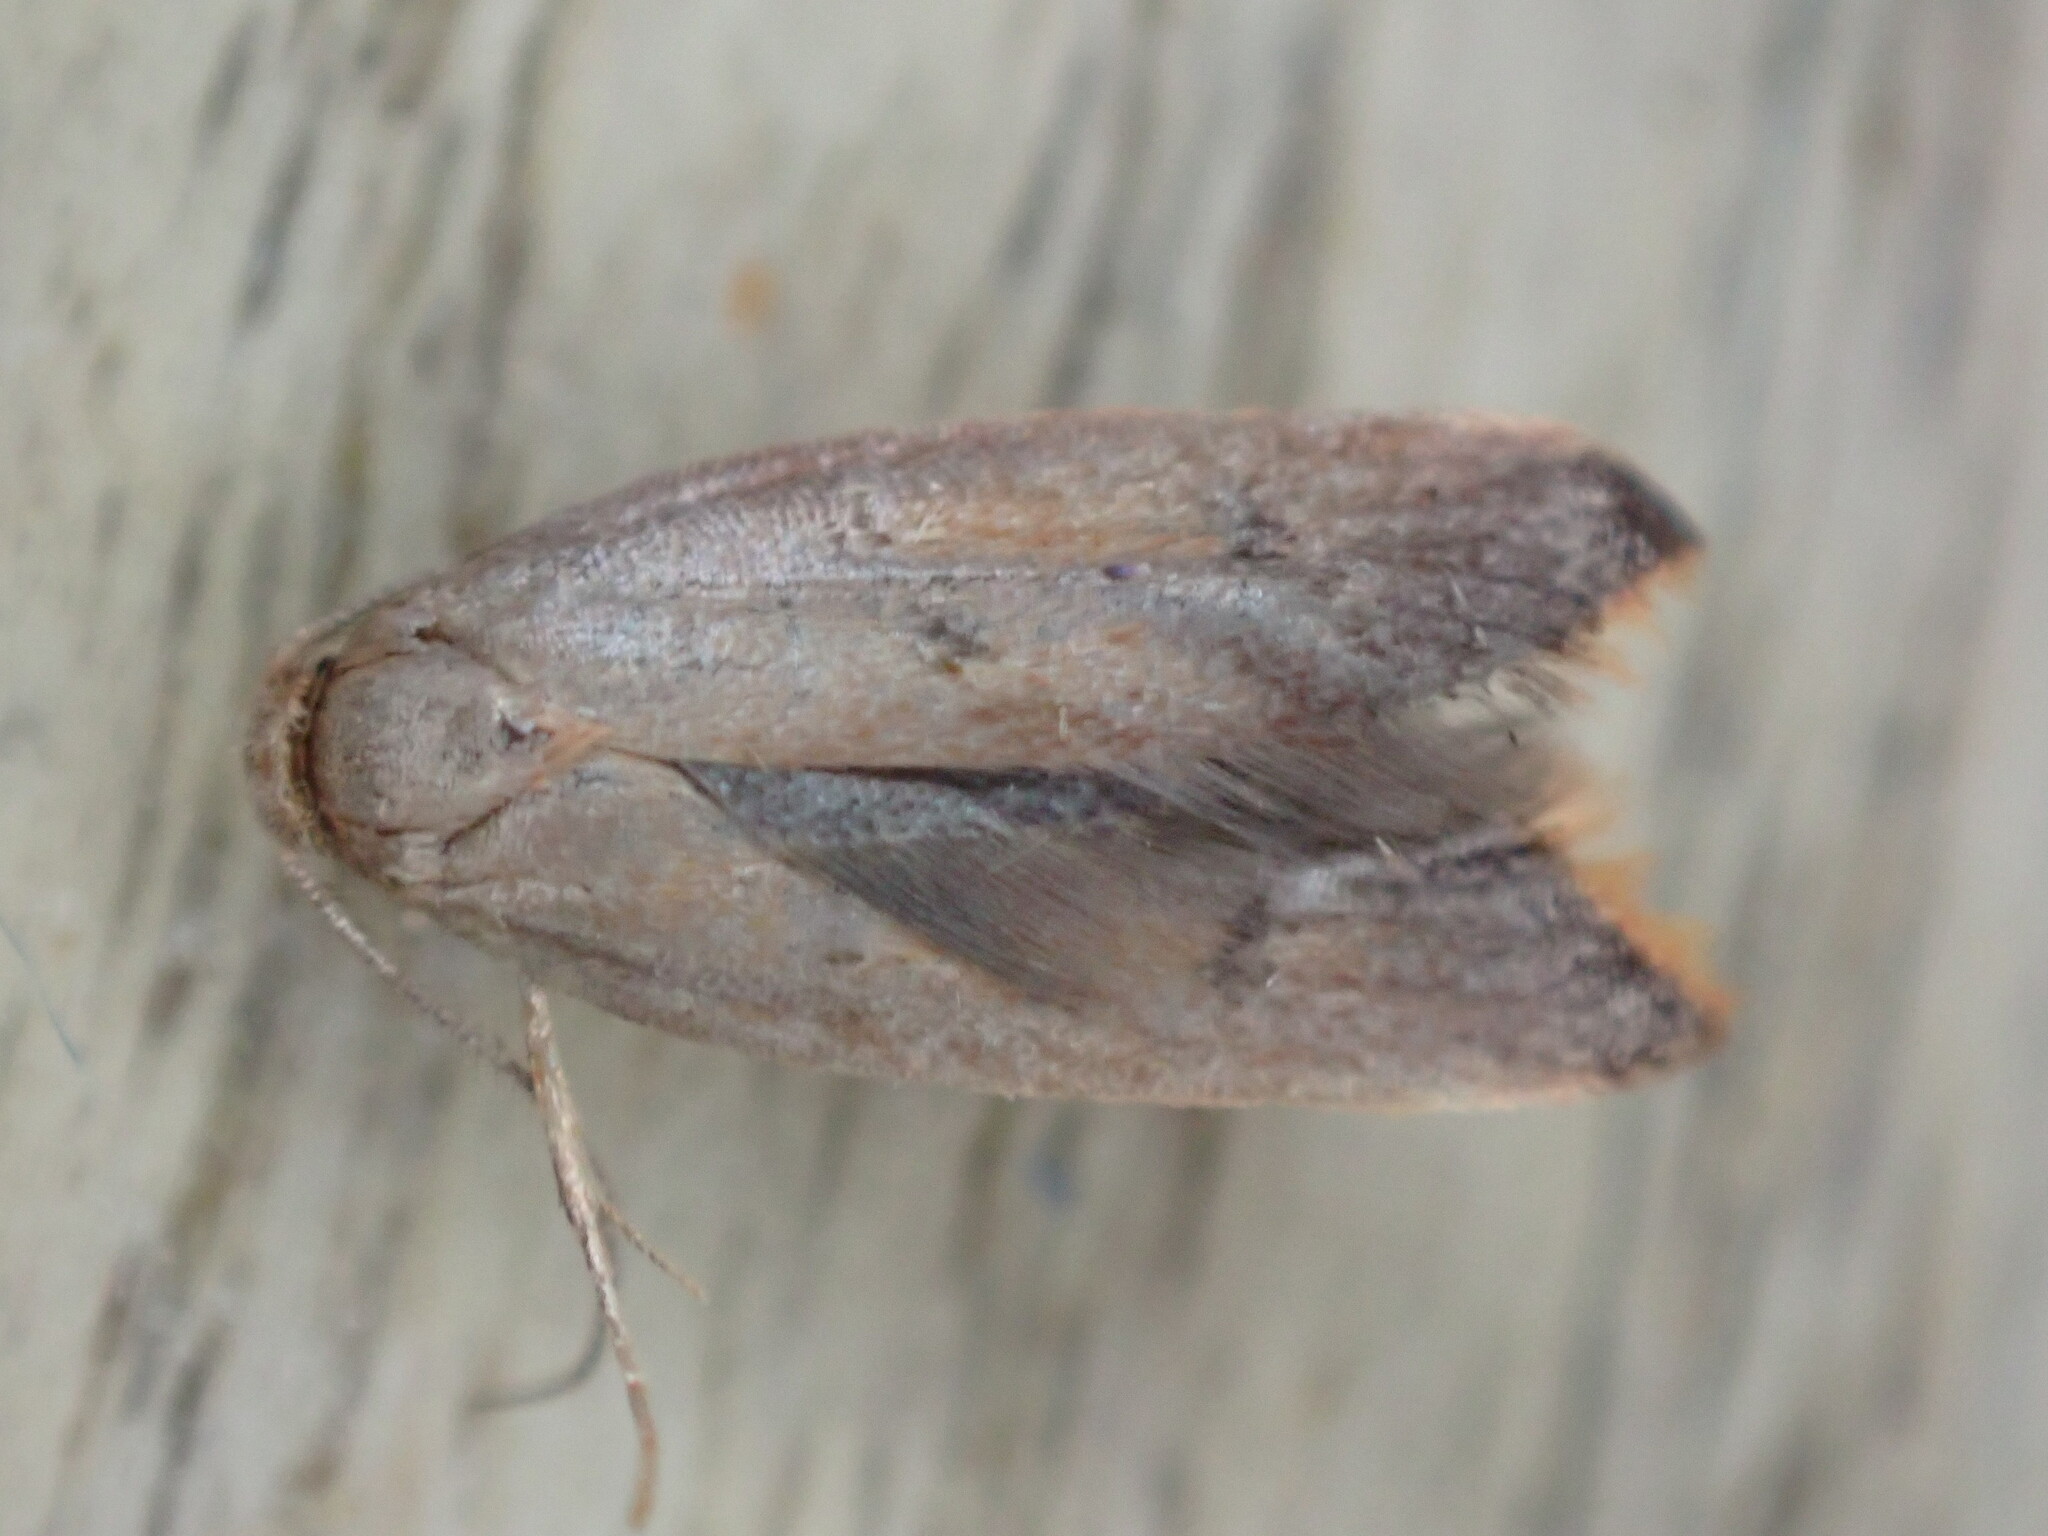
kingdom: Animalia
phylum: Arthropoda
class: Insecta
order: Lepidoptera
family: Oecophoridae
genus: Tachystola
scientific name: Tachystola acroxantha
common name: Ruddy streak
